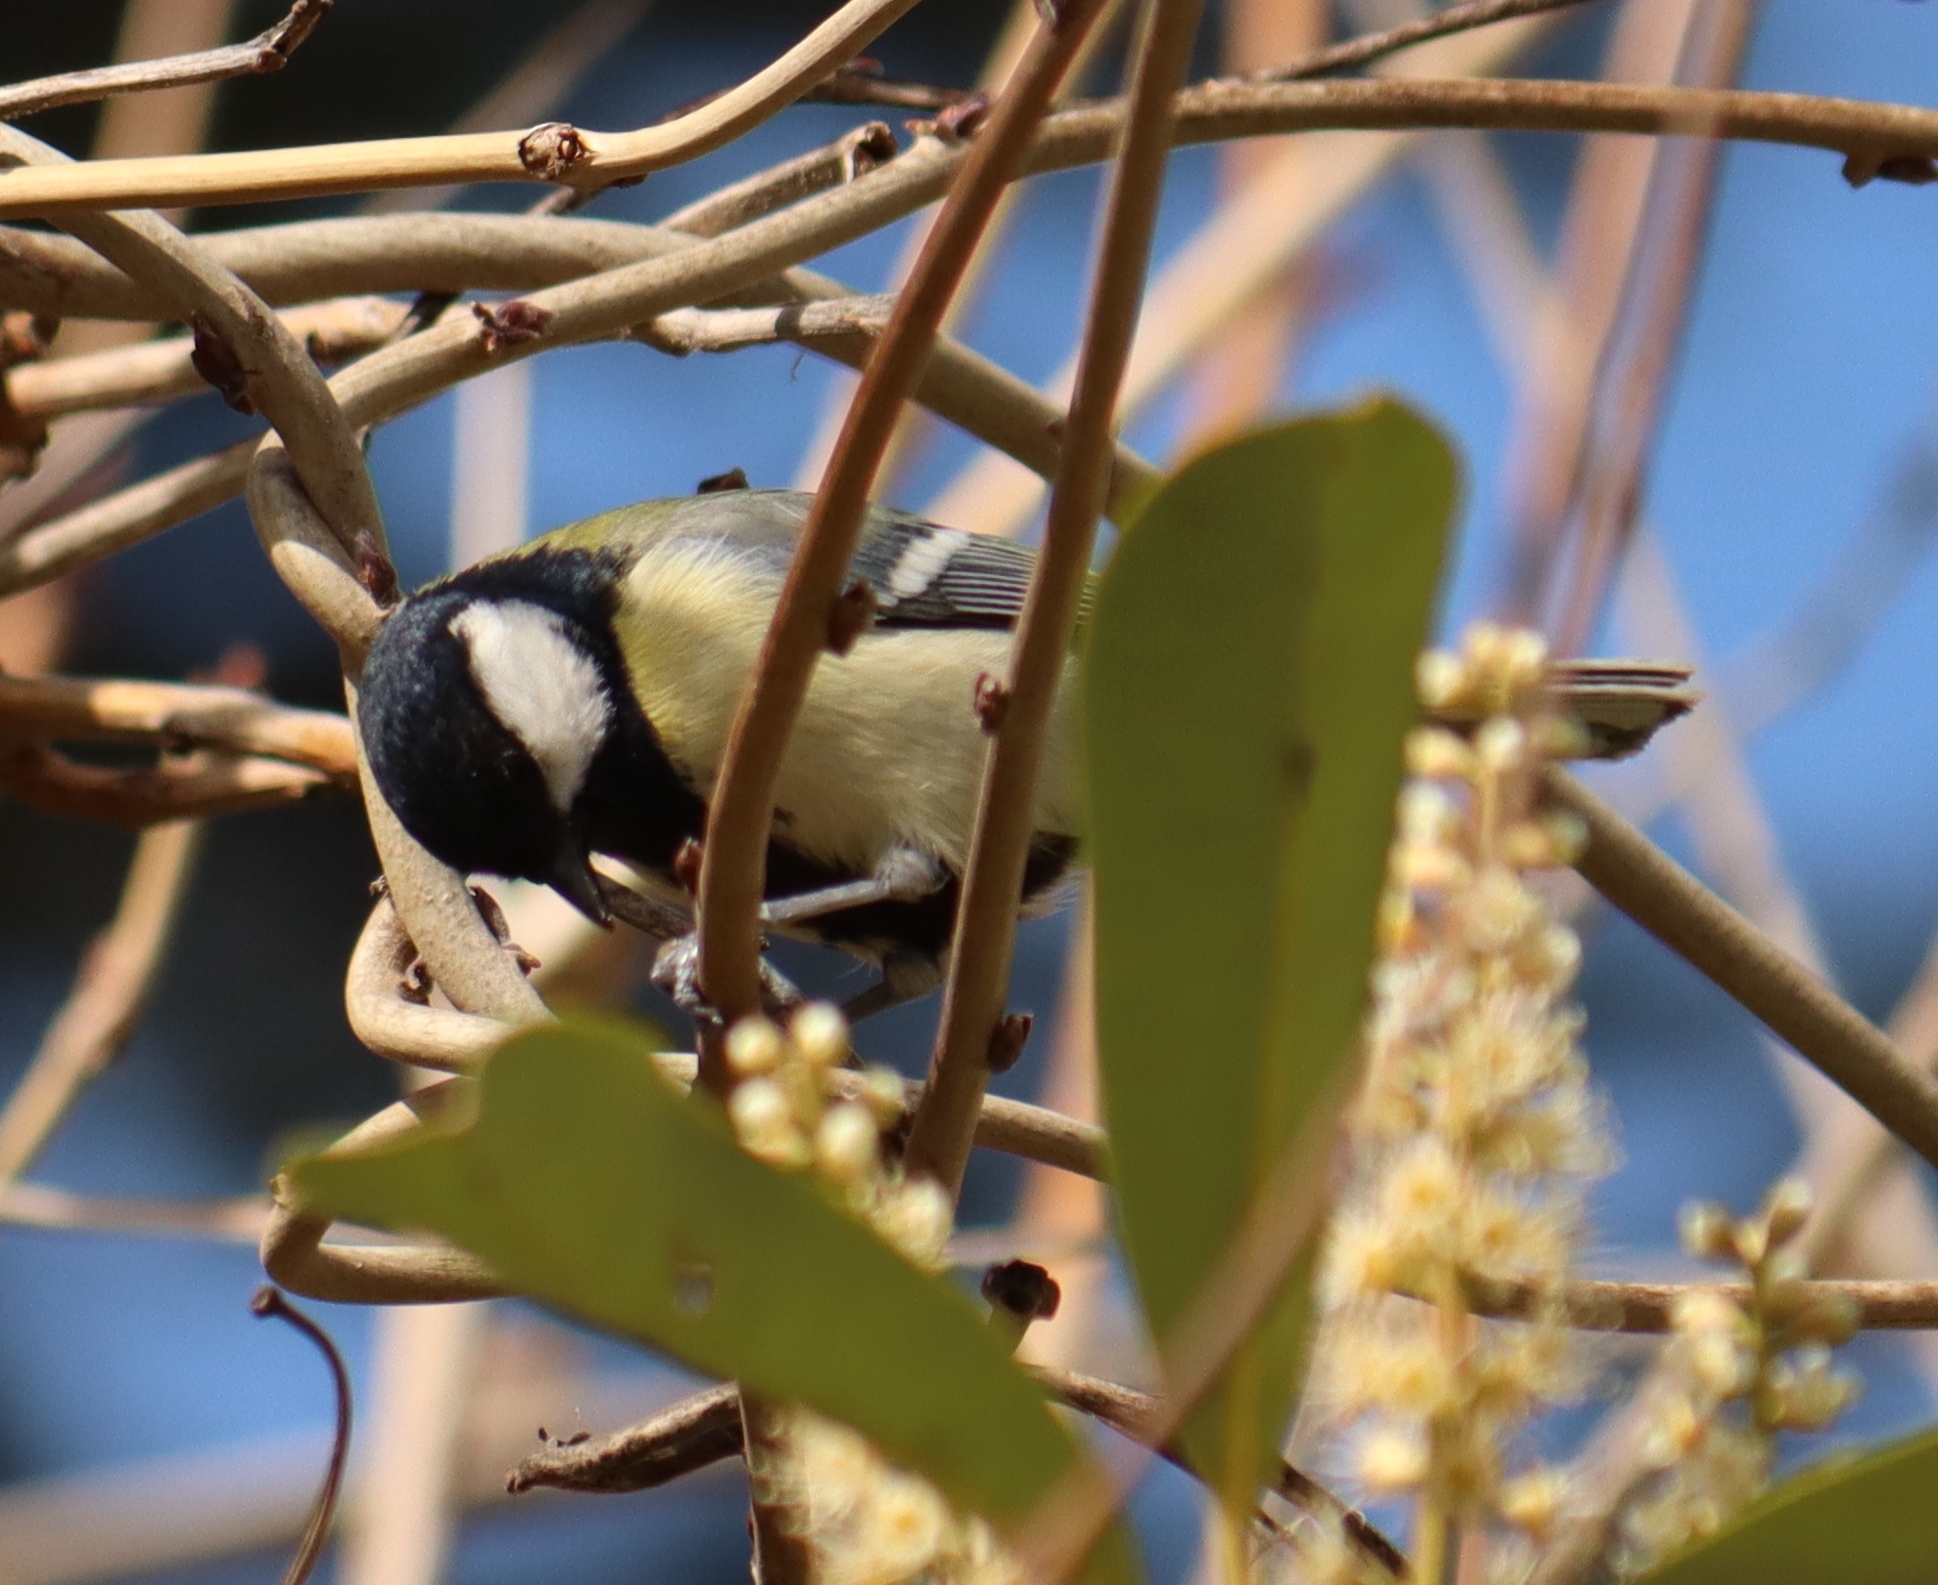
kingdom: Animalia
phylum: Chordata
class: Aves
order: Passeriformes
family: Paridae
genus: Parus
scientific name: Parus major
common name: Great tit
